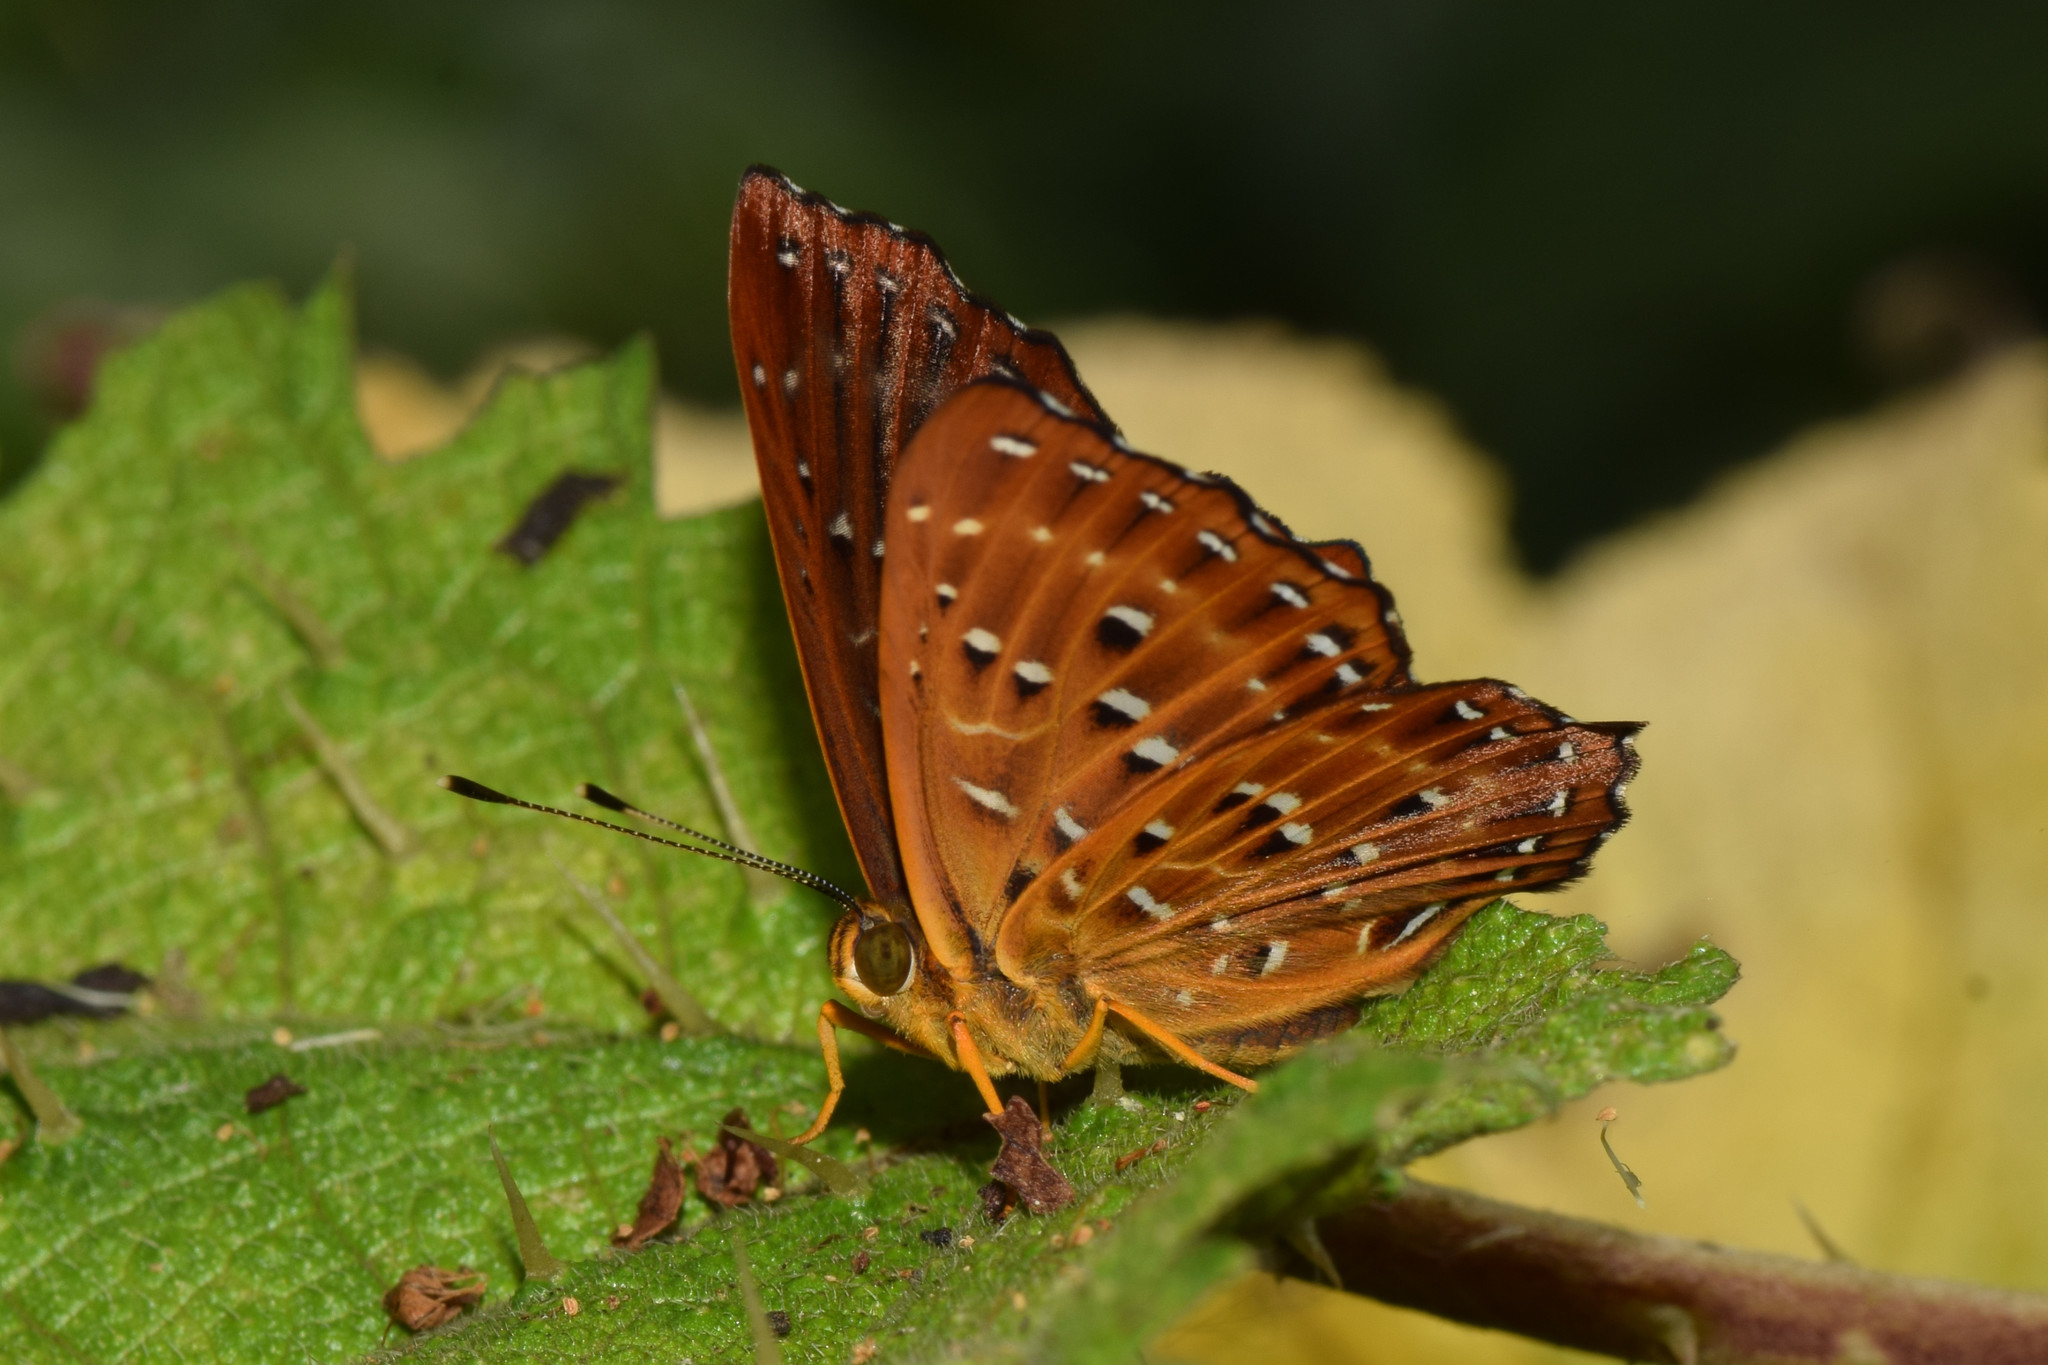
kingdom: Animalia
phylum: Arthropoda
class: Insecta
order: Lepidoptera
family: Riodinidae
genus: Zemeros
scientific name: Zemeros flegyas
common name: Punchinello
